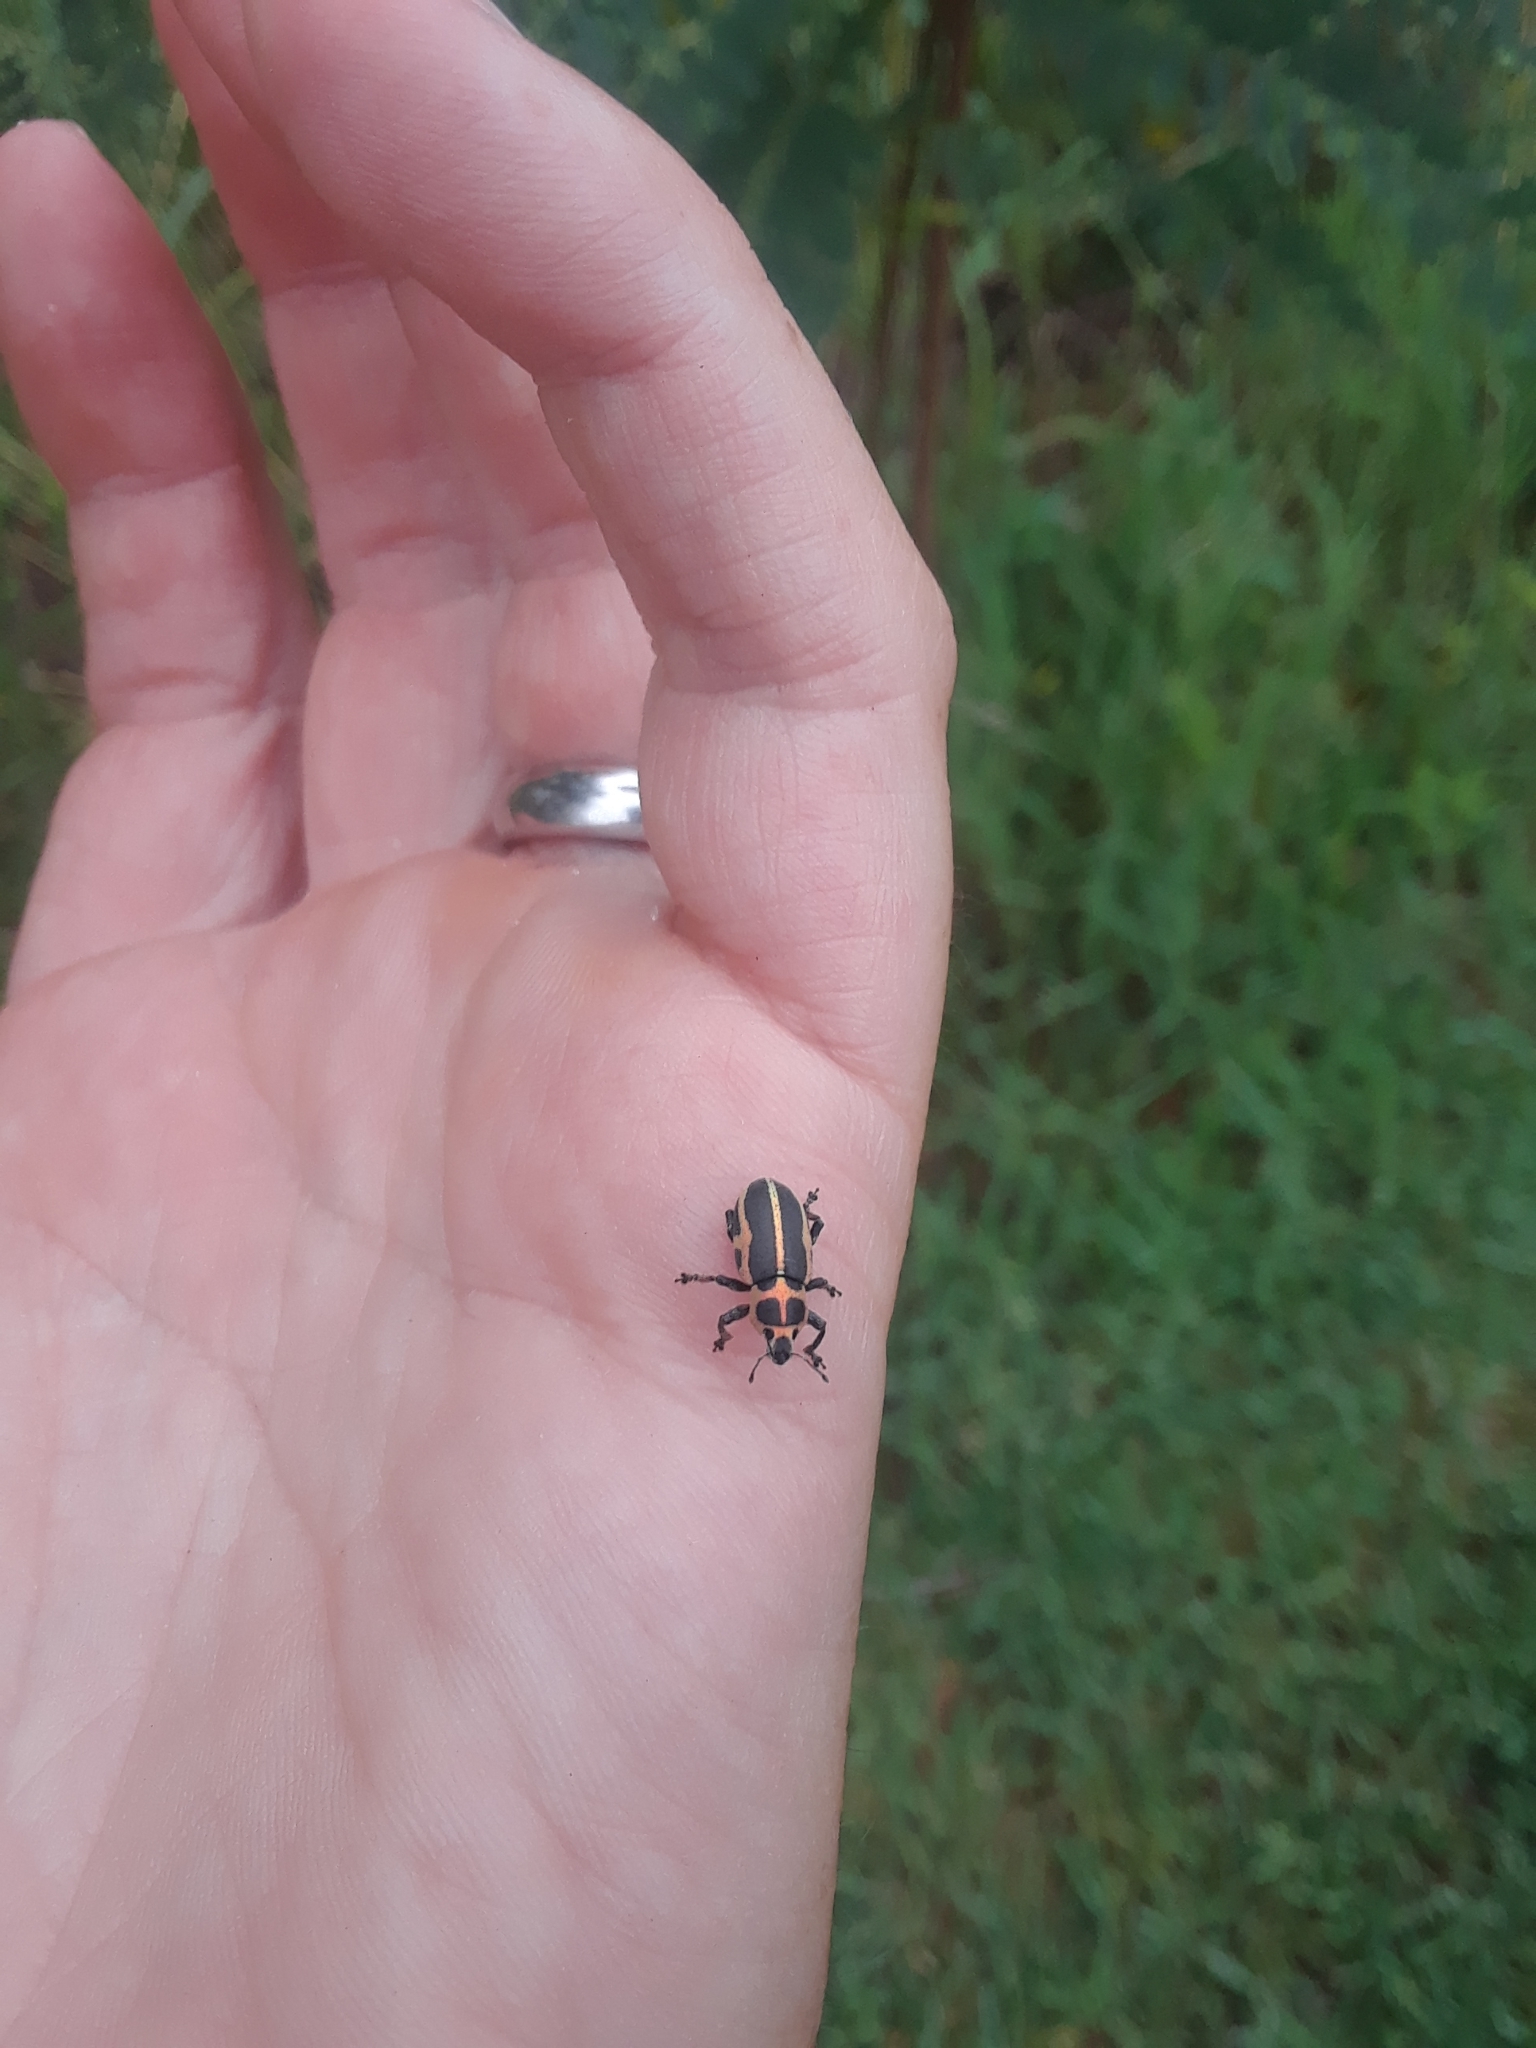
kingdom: Animalia
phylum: Arthropoda
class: Insecta
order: Coleoptera
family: Curculionidae
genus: Eudiagogus
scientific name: Eudiagogus pulcher
